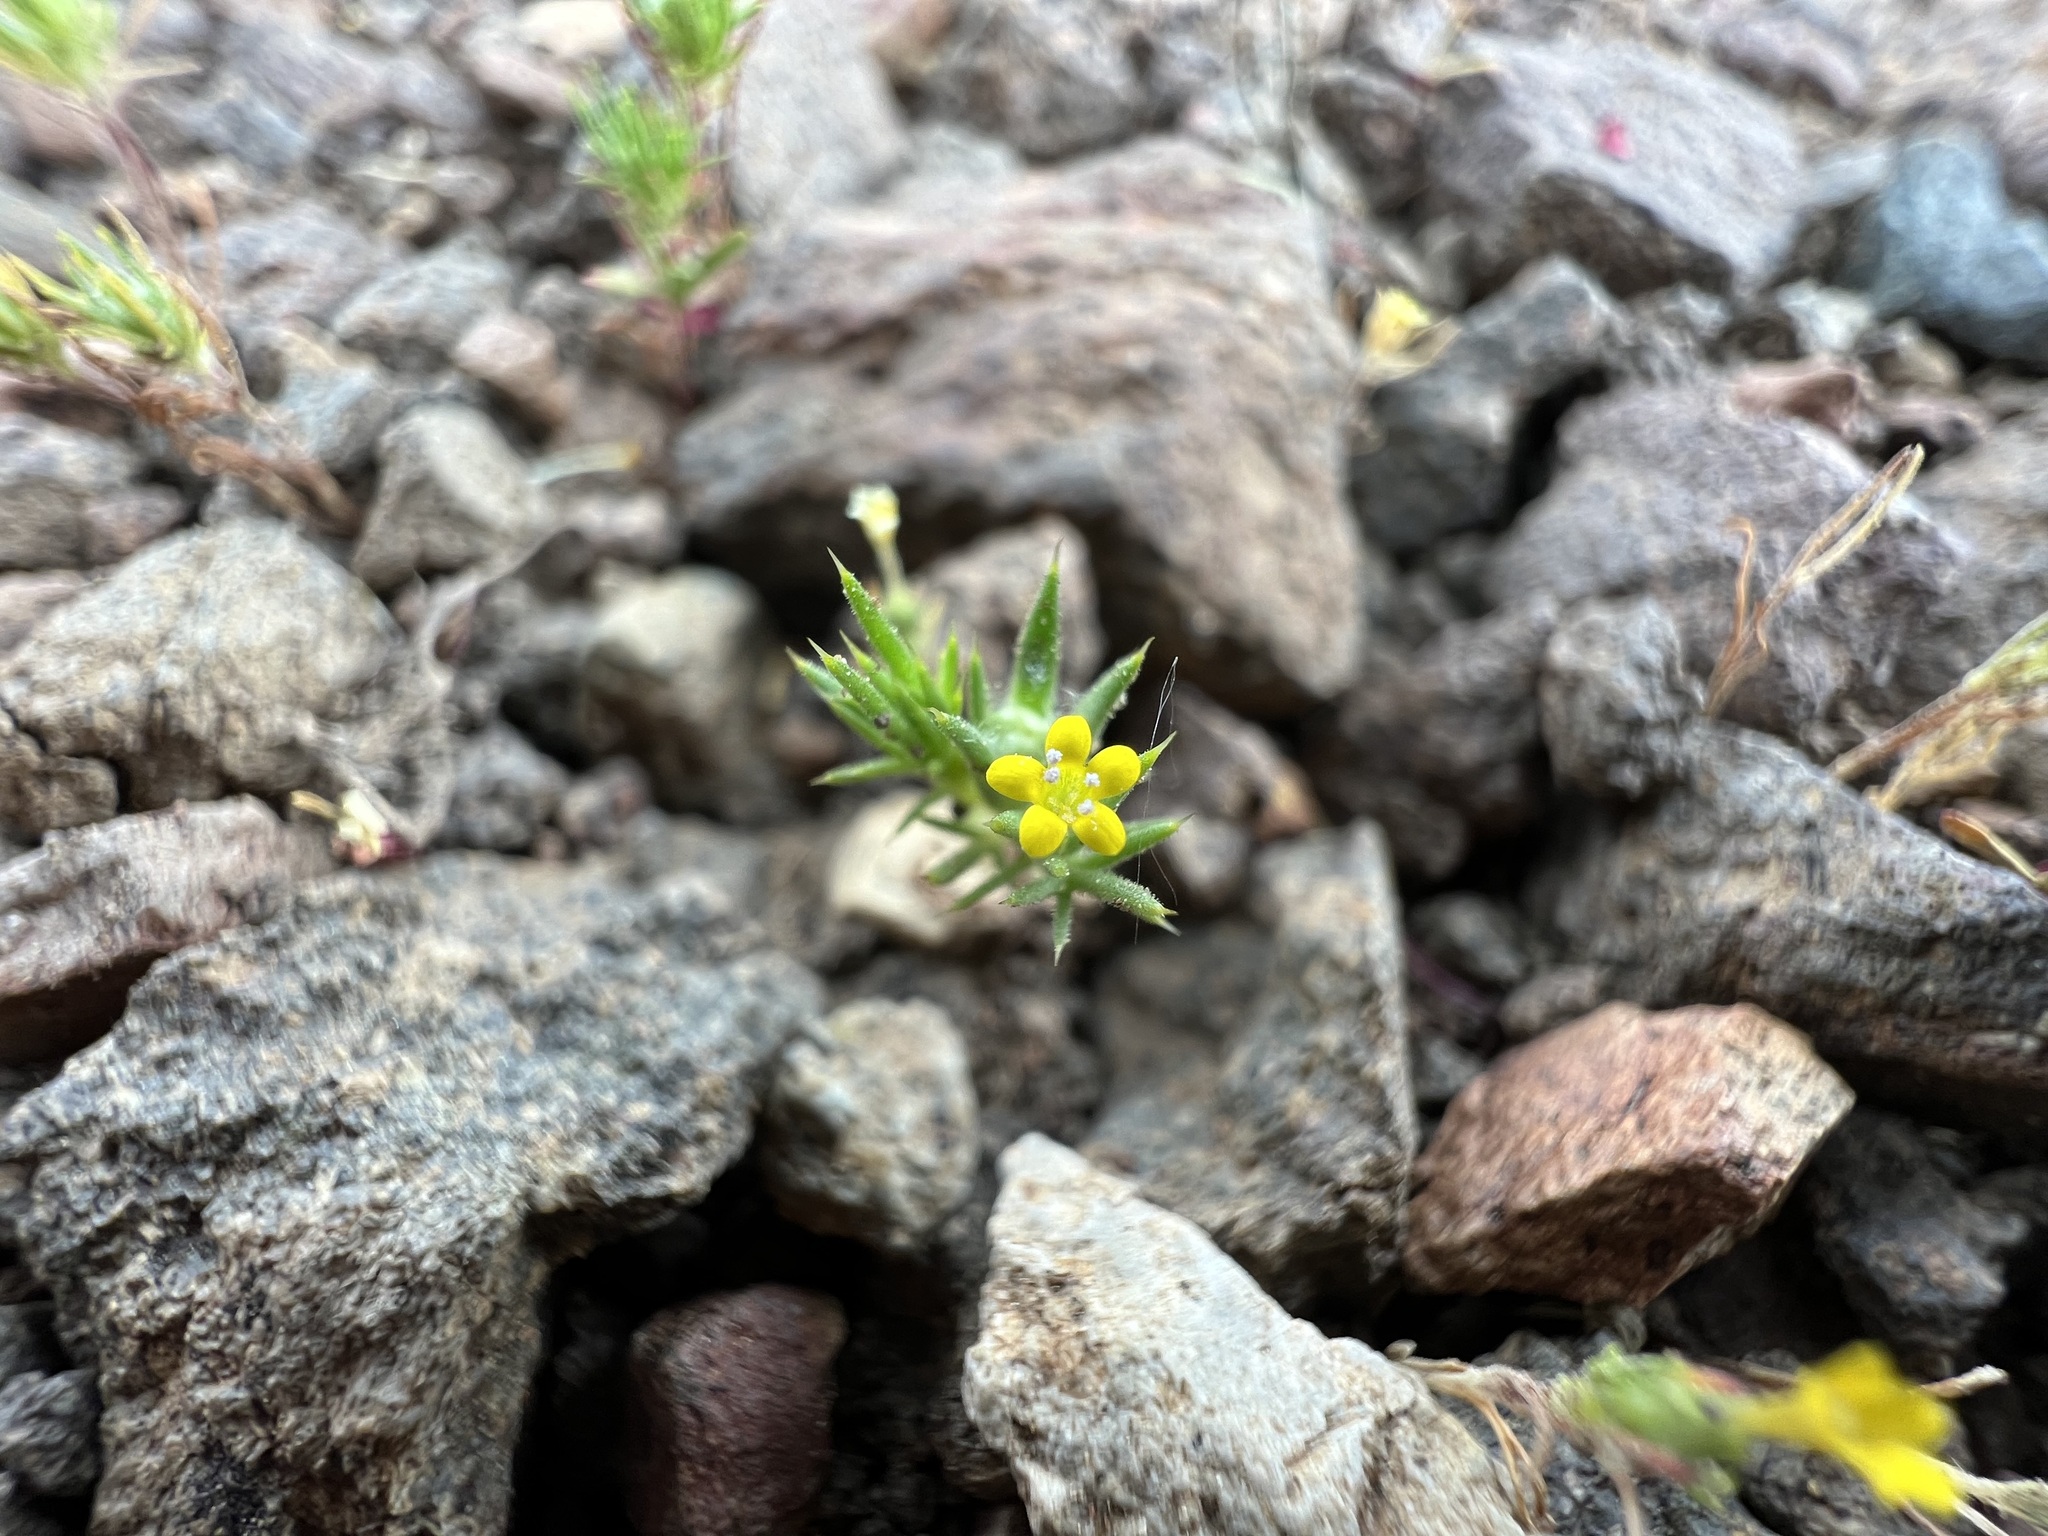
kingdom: Plantae
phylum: Tracheophyta
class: Magnoliopsida
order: Ericales
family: Polemoniaceae
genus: Navarretia
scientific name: Navarretia breweri
